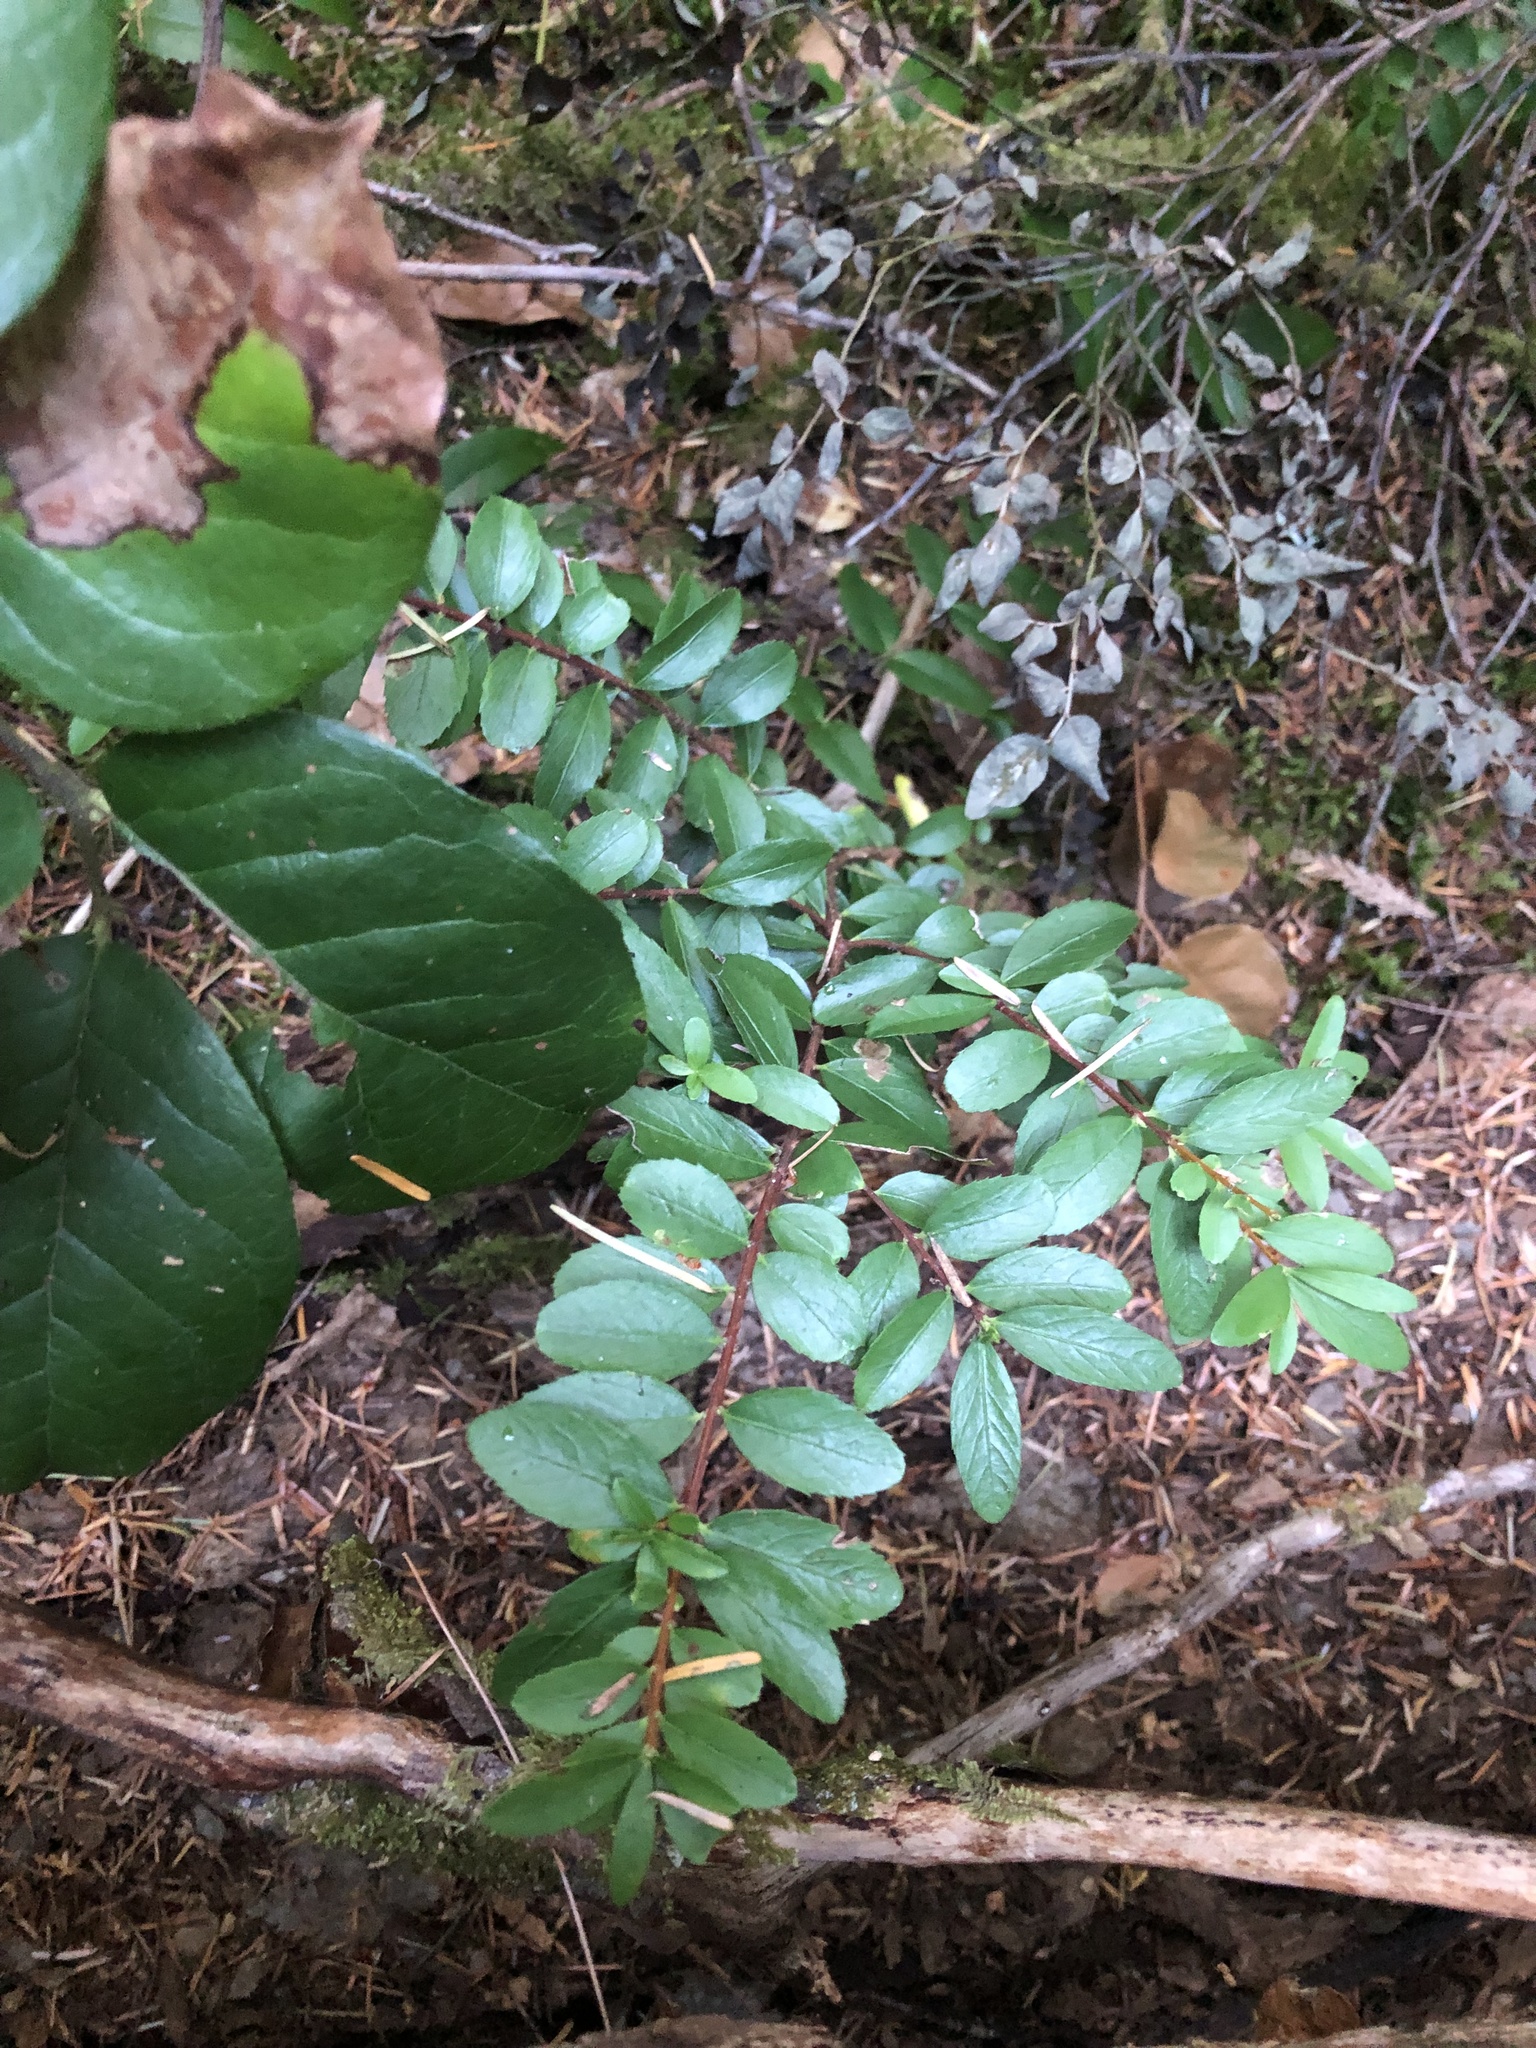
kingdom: Plantae
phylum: Tracheophyta
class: Magnoliopsida
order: Celastrales
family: Celastraceae
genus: Paxistima
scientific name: Paxistima myrsinites
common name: Mountain-lover
